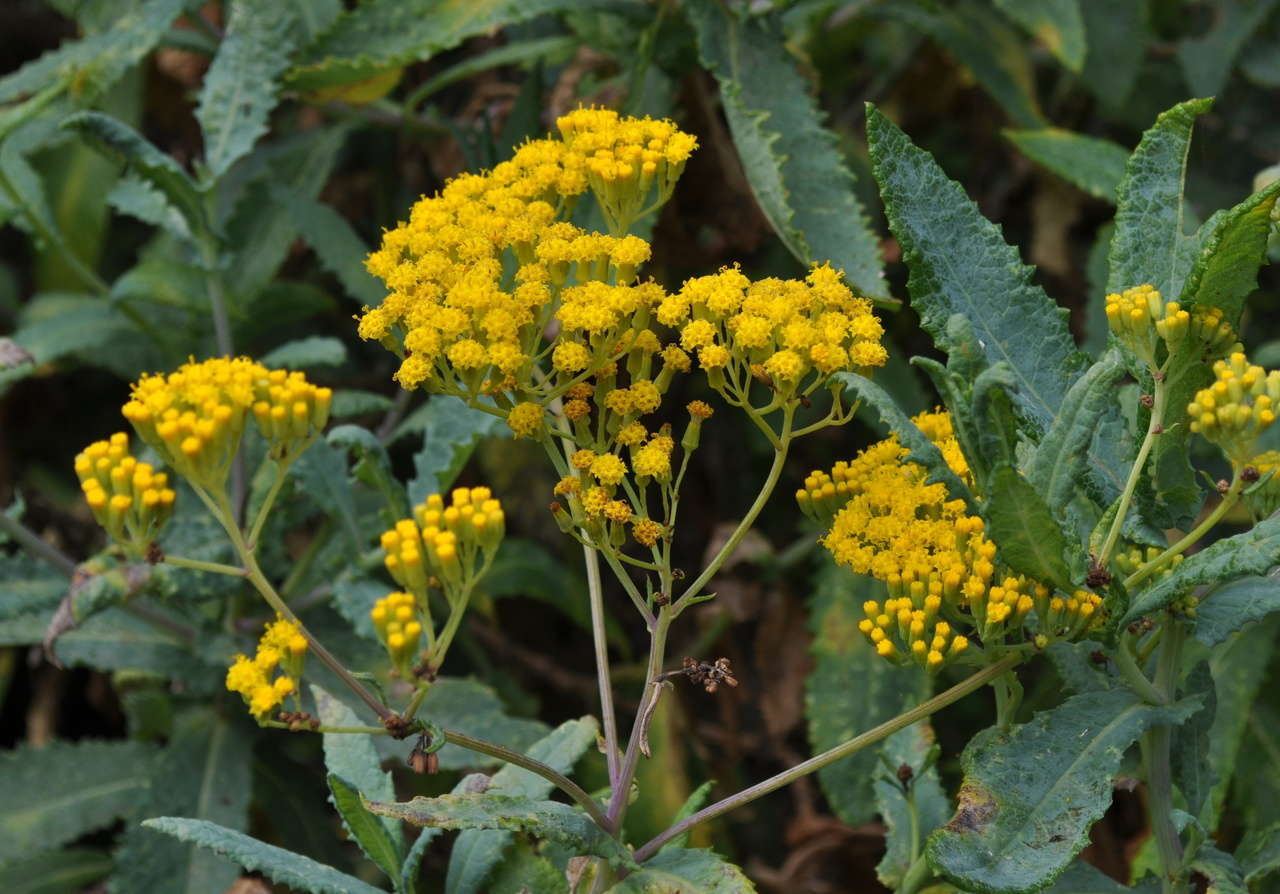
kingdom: Plantae
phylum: Tracheophyta
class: Magnoliopsida
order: Asterales
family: Asteraceae
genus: Senecio
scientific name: Senecio odoratus
